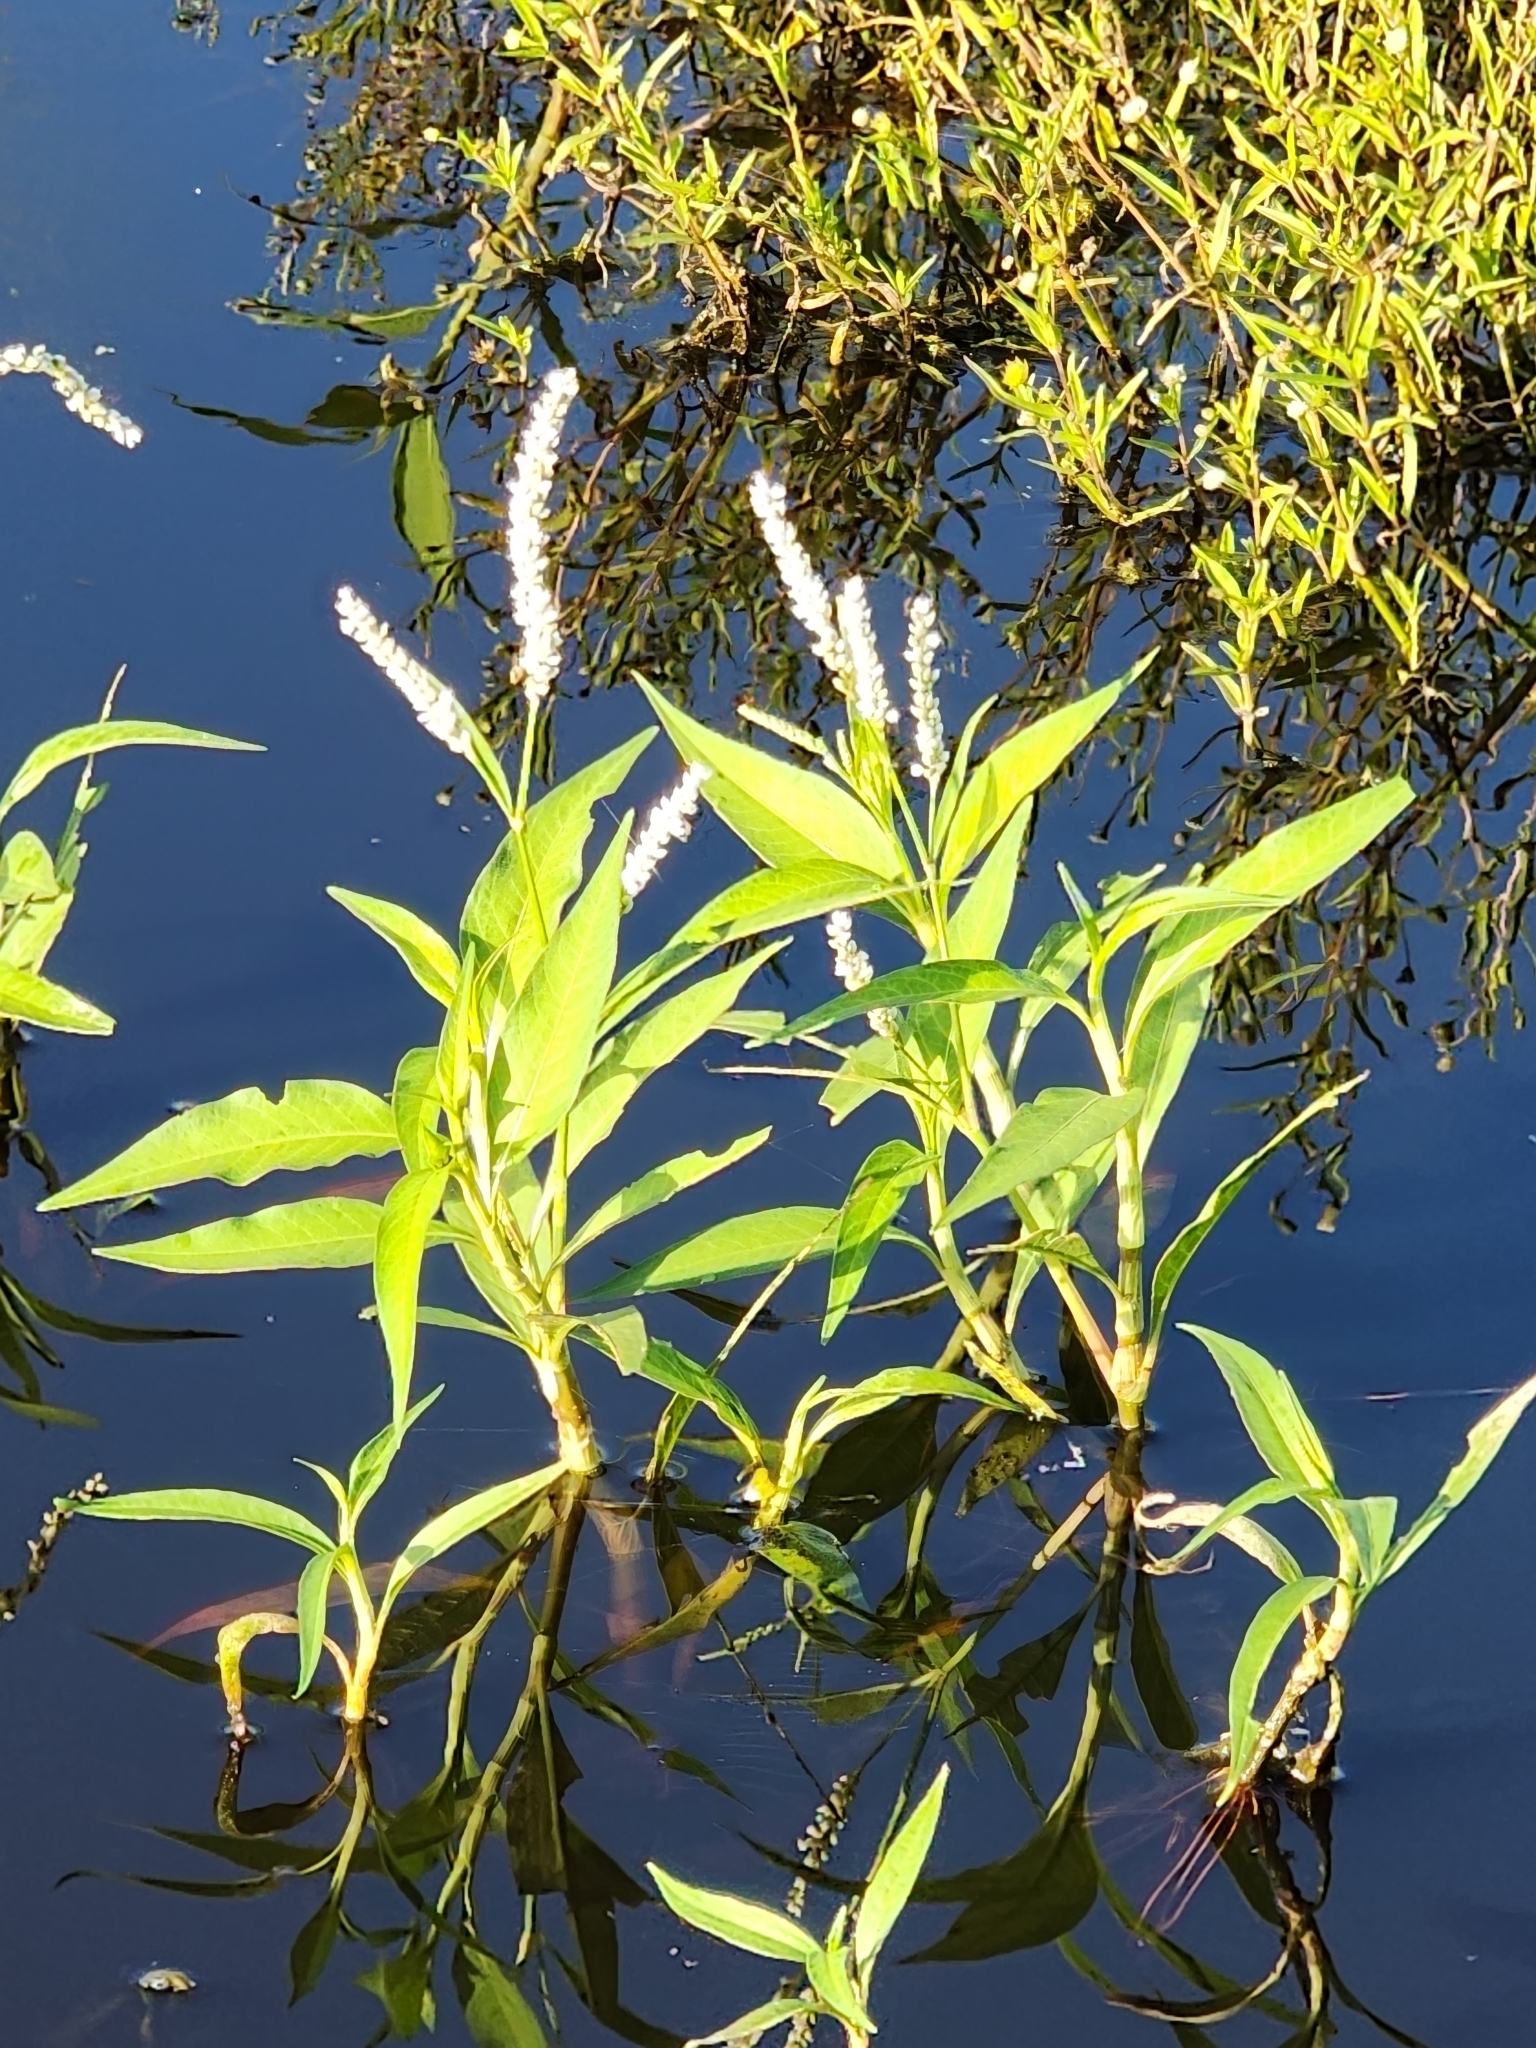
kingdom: Plantae
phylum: Tracheophyta
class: Magnoliopsida
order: Caryophyllales
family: Polygonaceae
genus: Persicaria
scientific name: Persicaria attenuata
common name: Hairy knotweed
